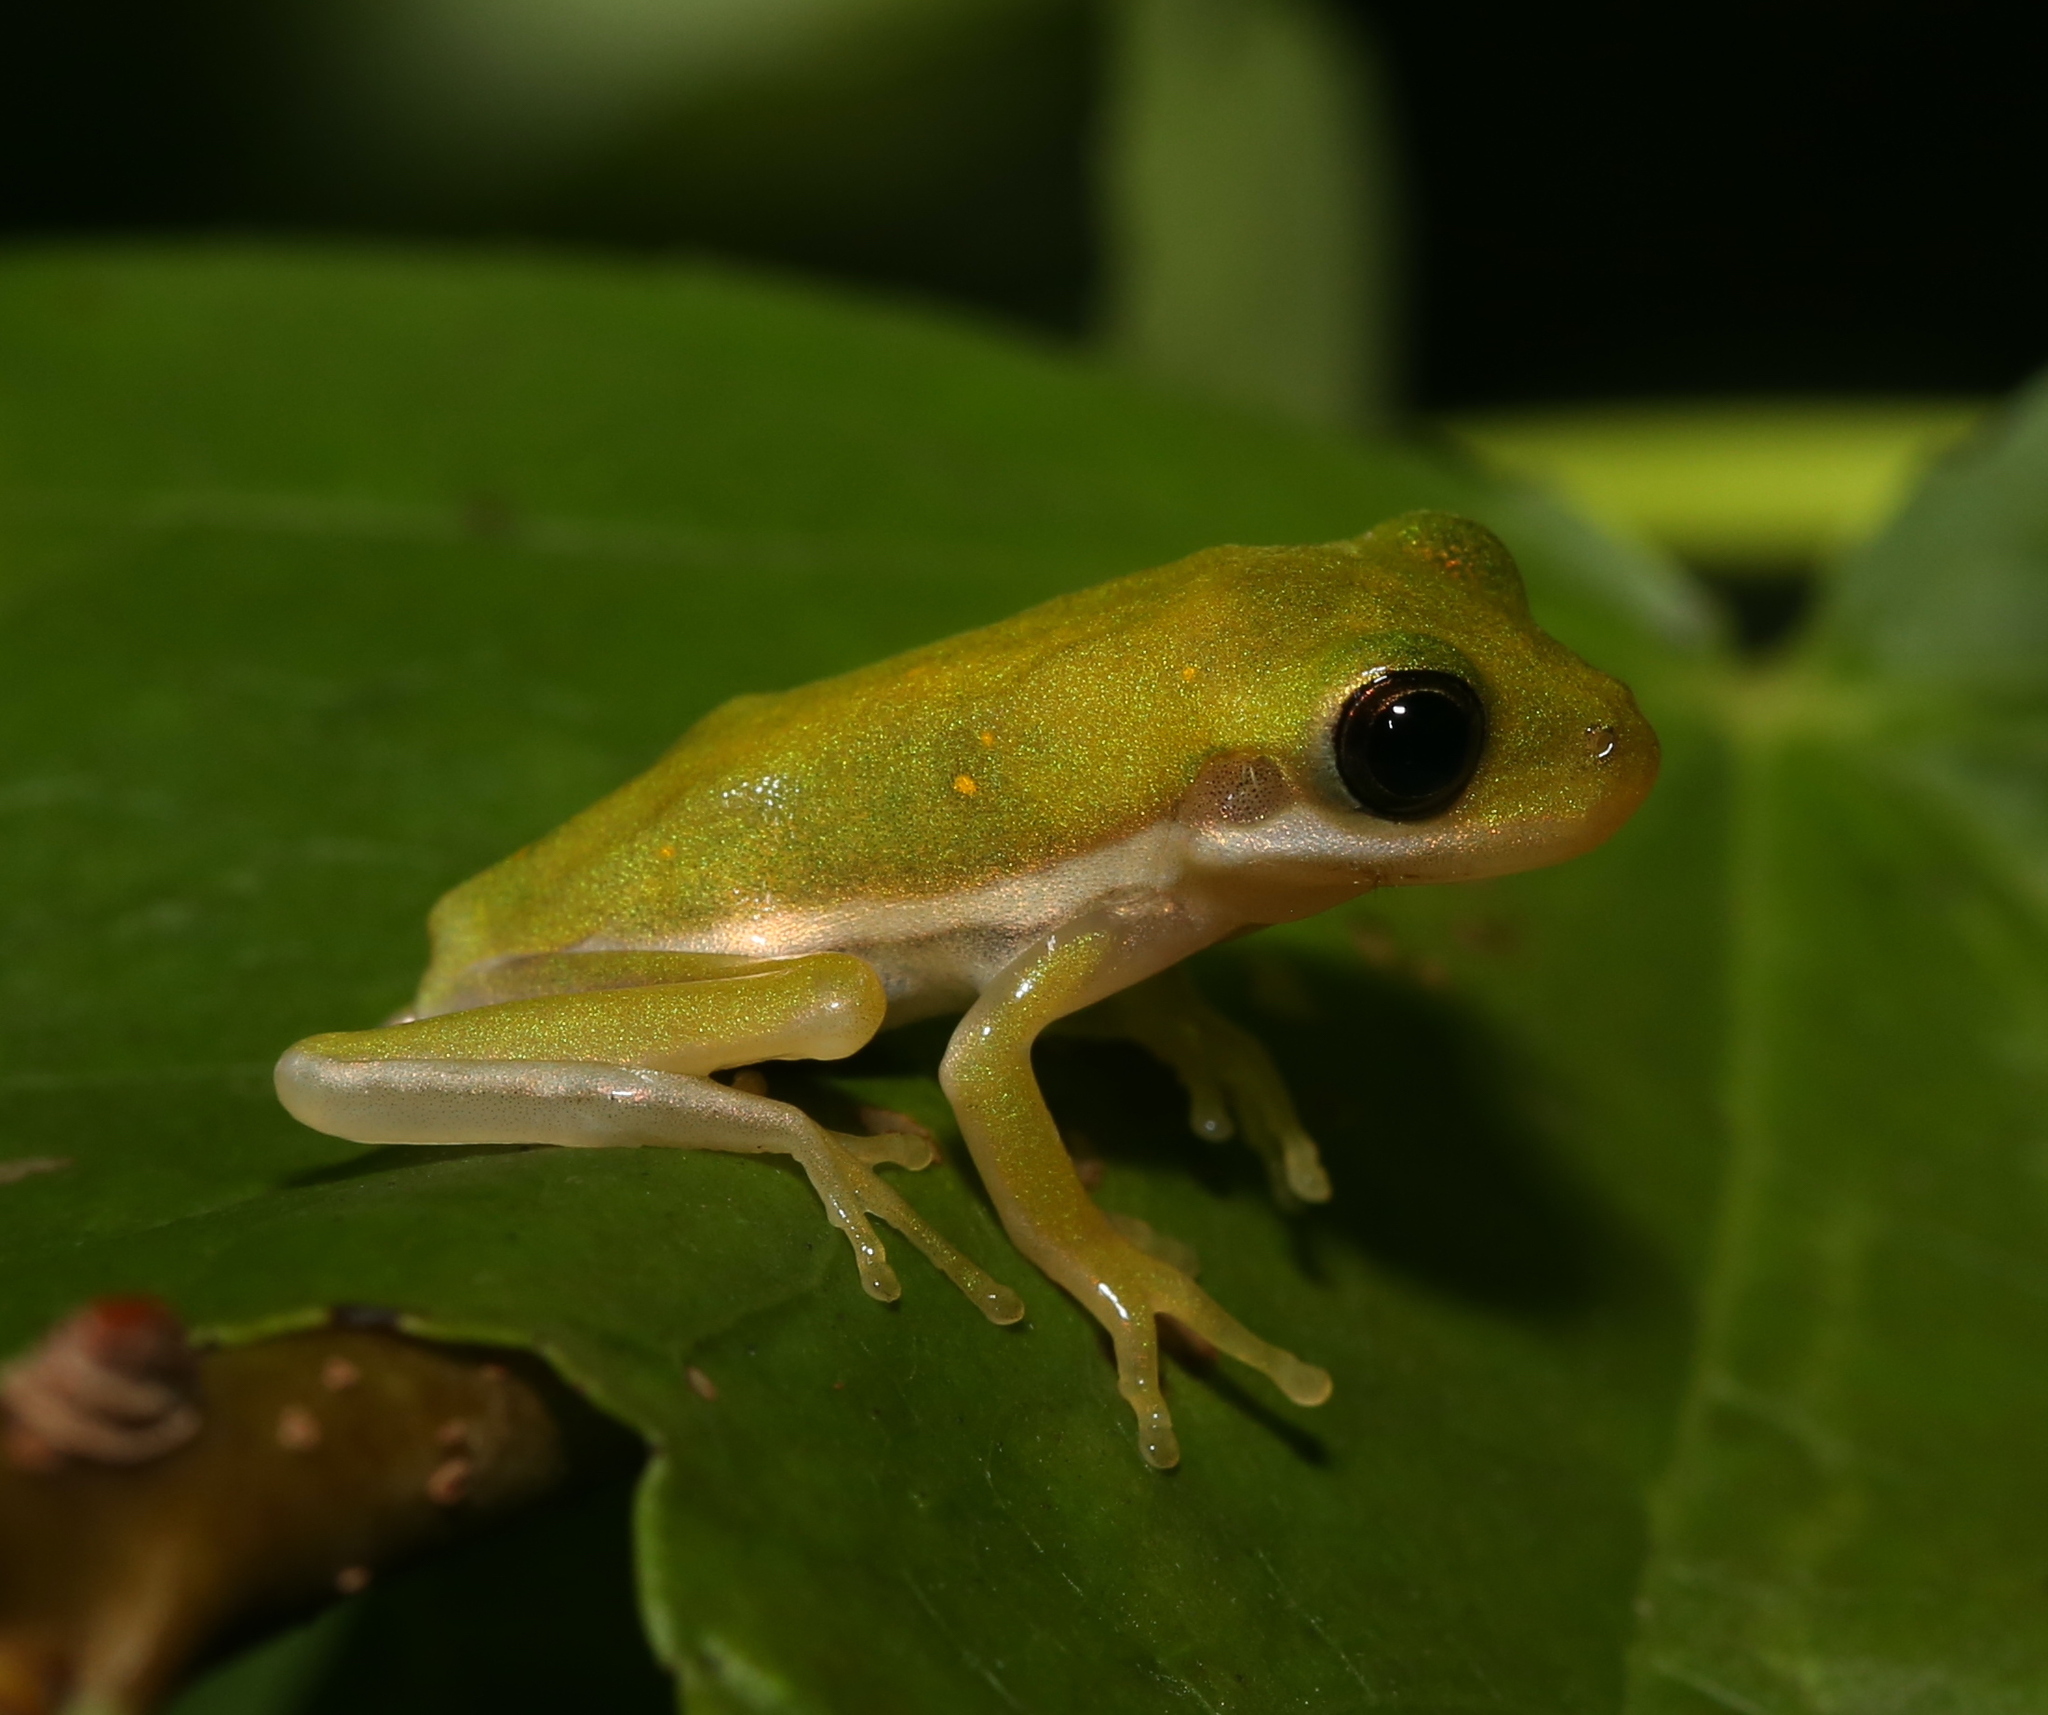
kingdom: Animalia
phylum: Chordata
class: Amphibia
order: Anura
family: Hylidae
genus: Dryophytes
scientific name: Dryophytes cinereus
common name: Green treefrog
